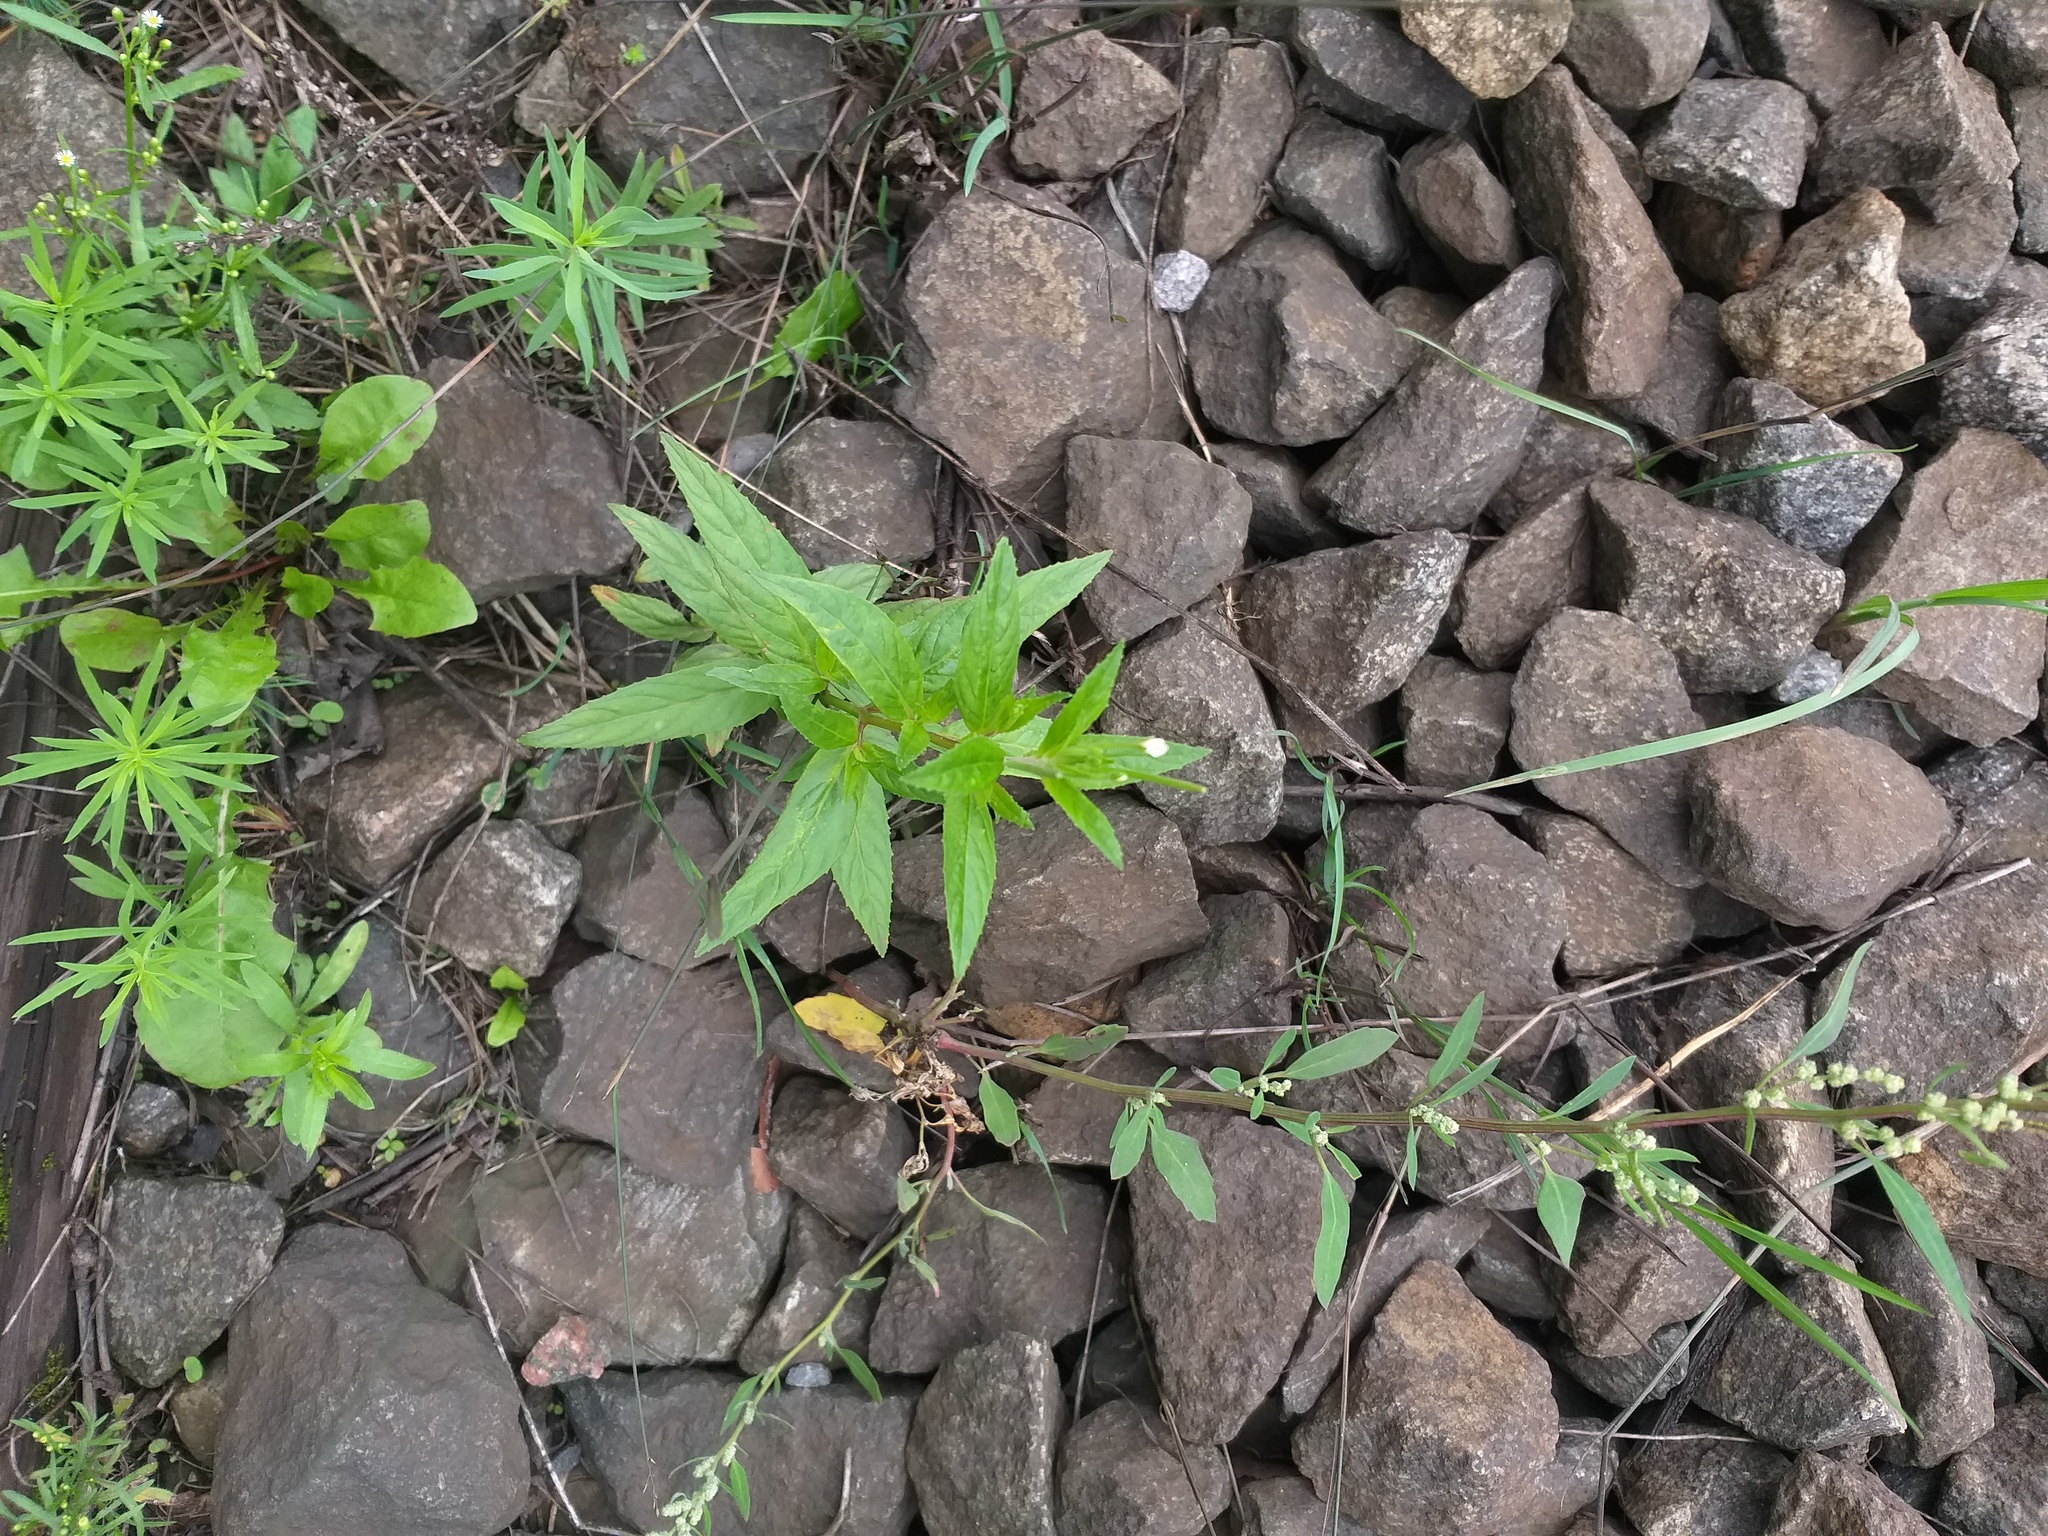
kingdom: Plantae
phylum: Tracheophyta
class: Magnoliopsida
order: Myrtales
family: Onagraceae
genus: Epilobium
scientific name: Epilobium pseudorubescens
